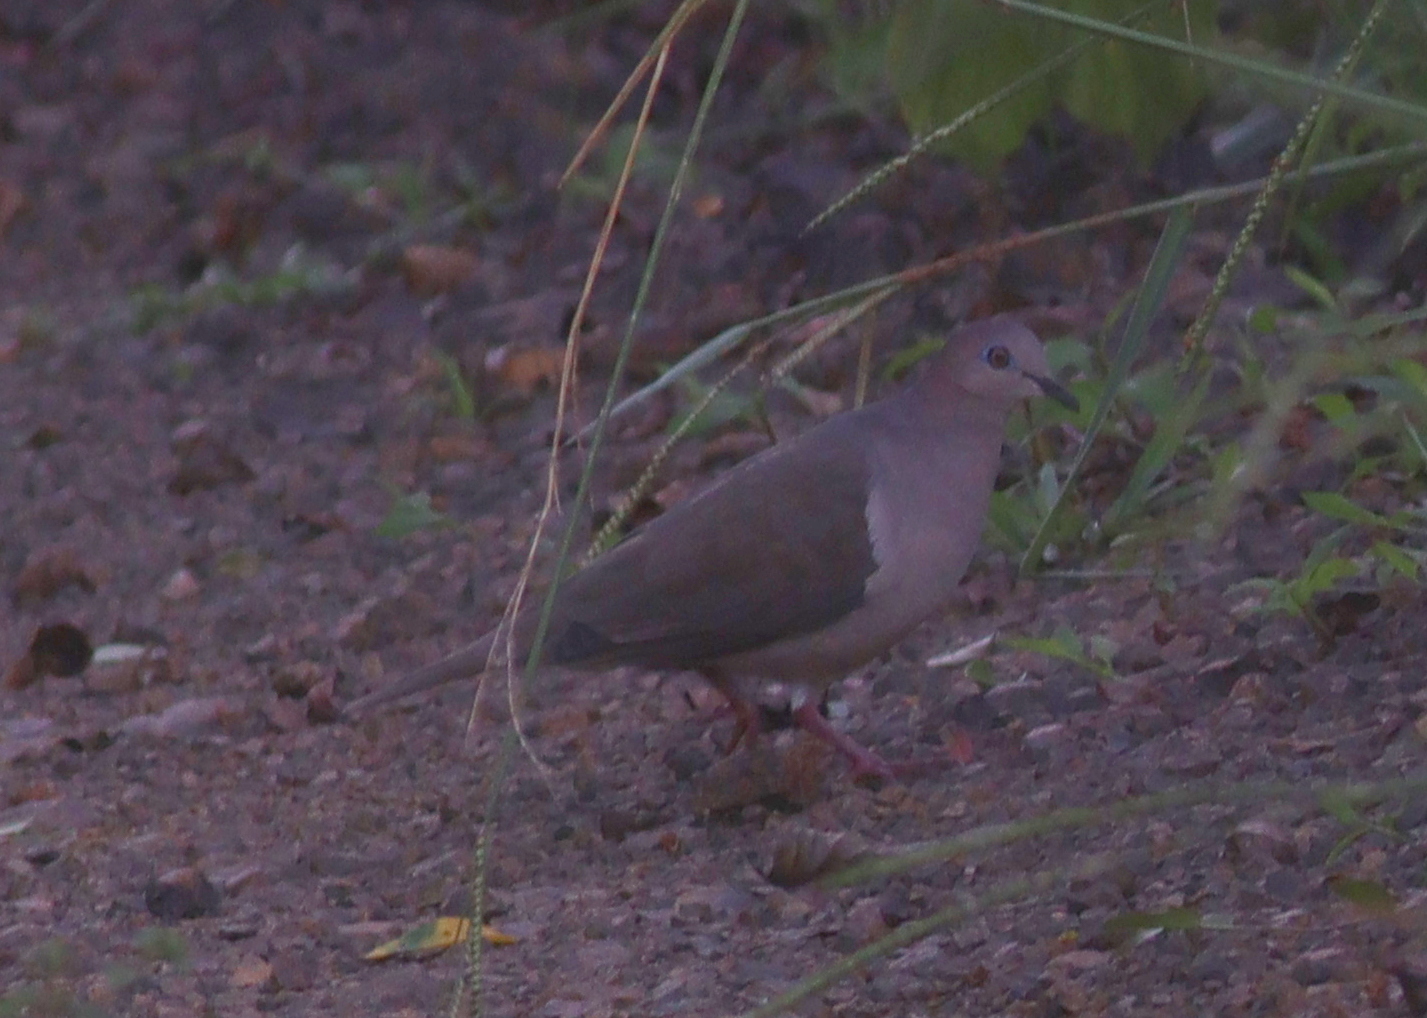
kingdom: Animalia
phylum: Chordata
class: Aves
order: Columbiformes
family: Columbidae
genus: Leptotila
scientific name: Leptotila verreauxi
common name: White-tipped dove
